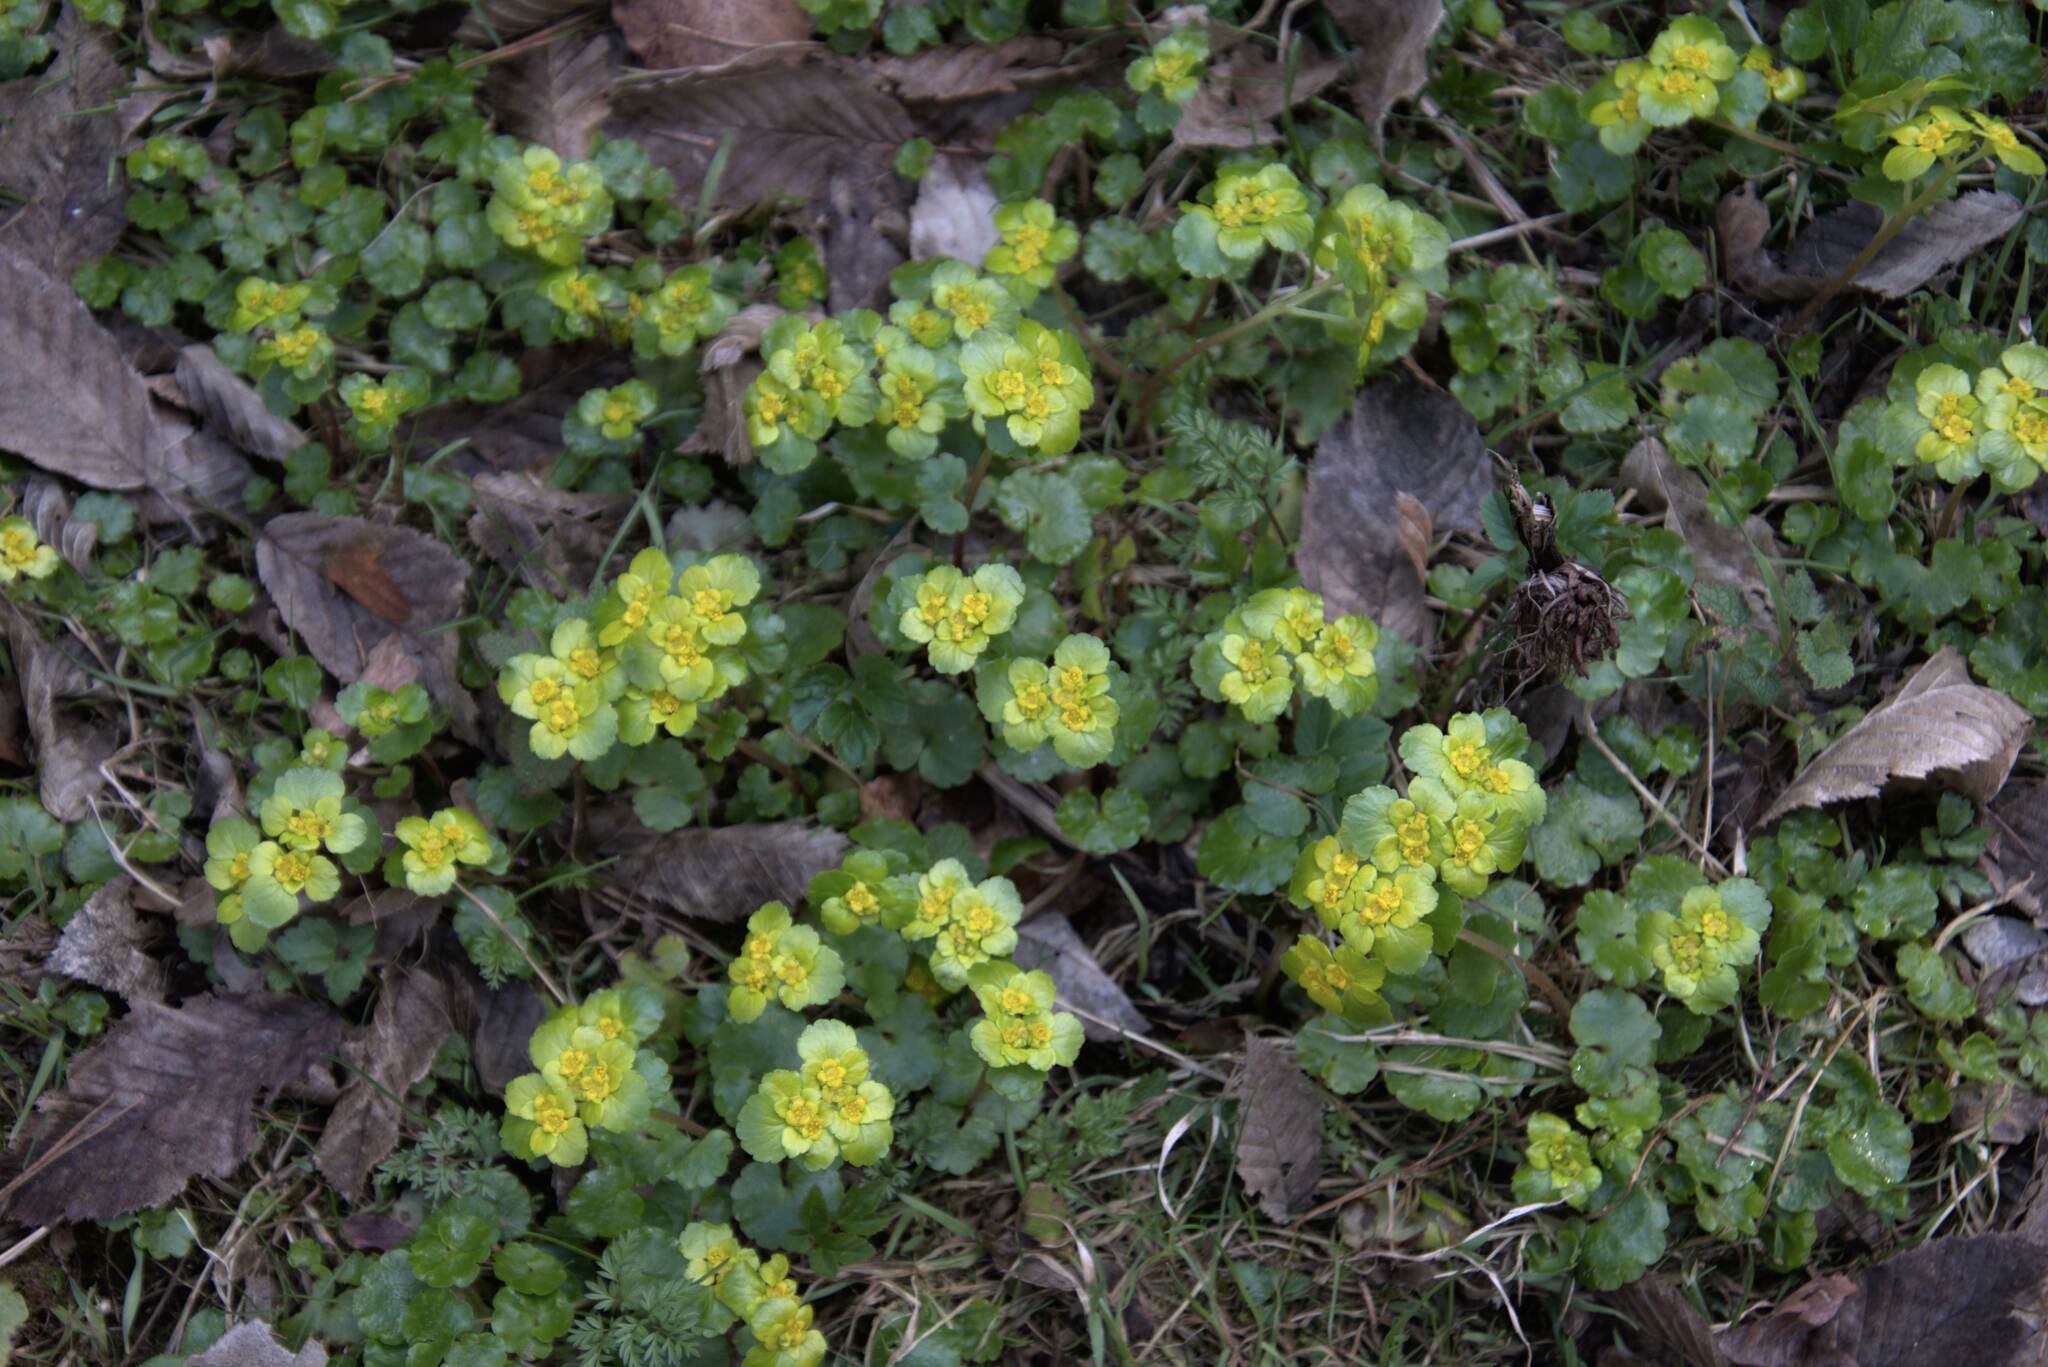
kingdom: Plantae
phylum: Tracheophyta
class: Magnoliopsida
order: Saxifragales
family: Saxifragaceae
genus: Chrysosplenium
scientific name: Chrysosplenium alternifolium
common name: Alternate-leaved golden-saxifrage
